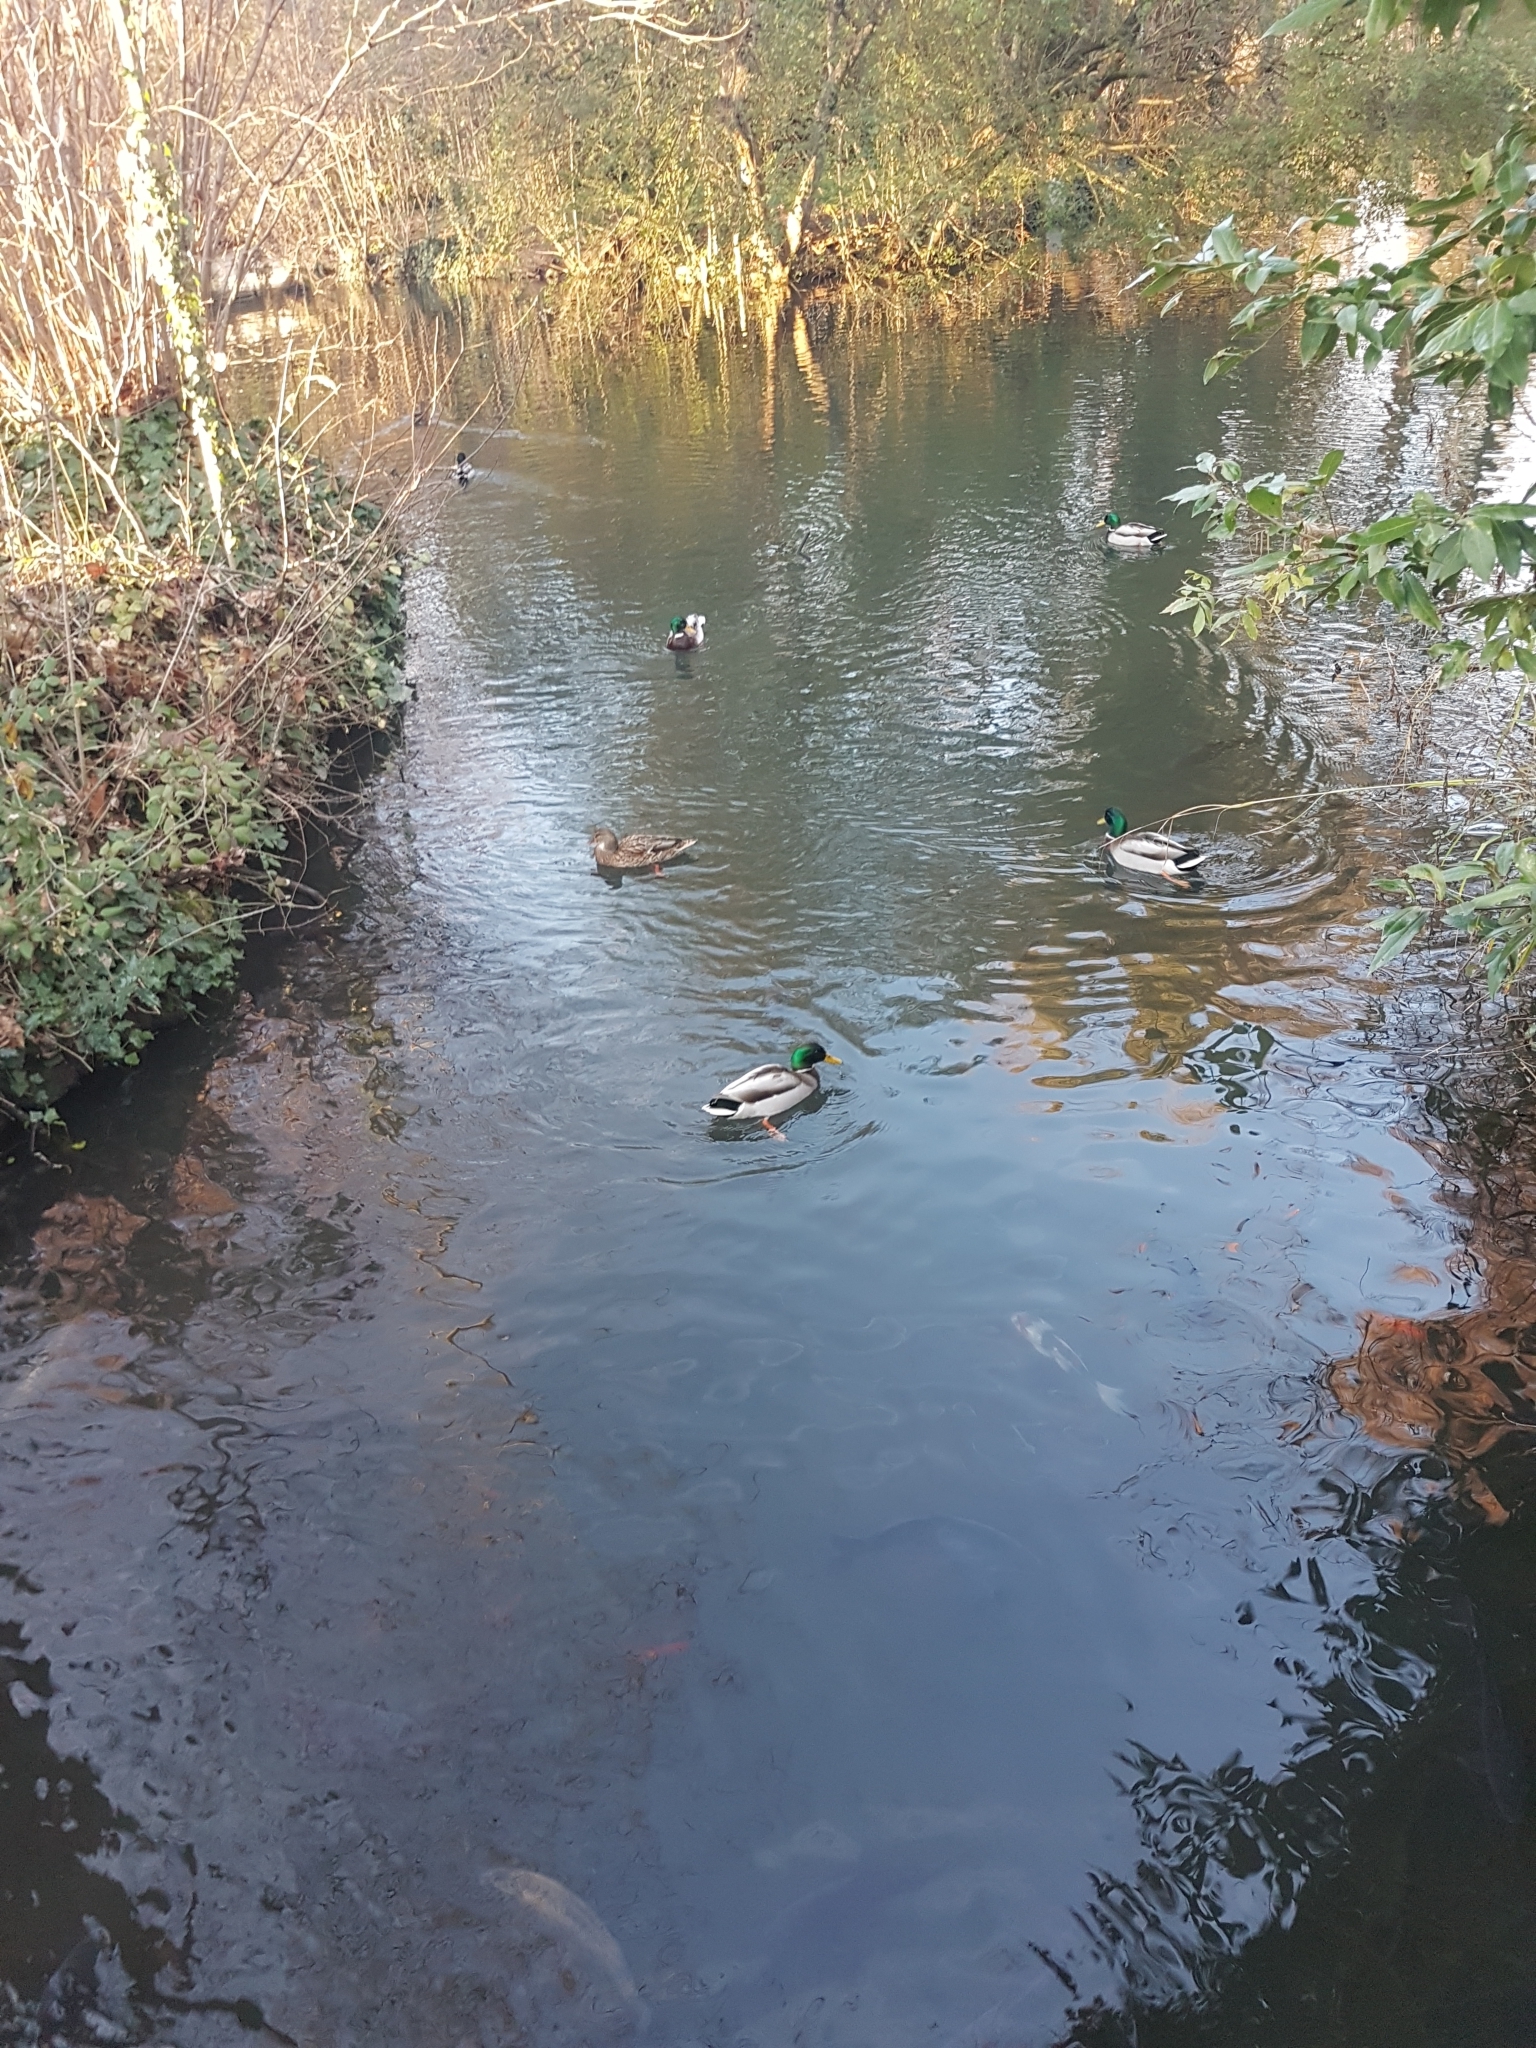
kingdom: Animalia
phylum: Chordata
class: Aves
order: Anseriformes
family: Anatidae
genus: Anas
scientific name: Anas platyrhynchos
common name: Mallard
